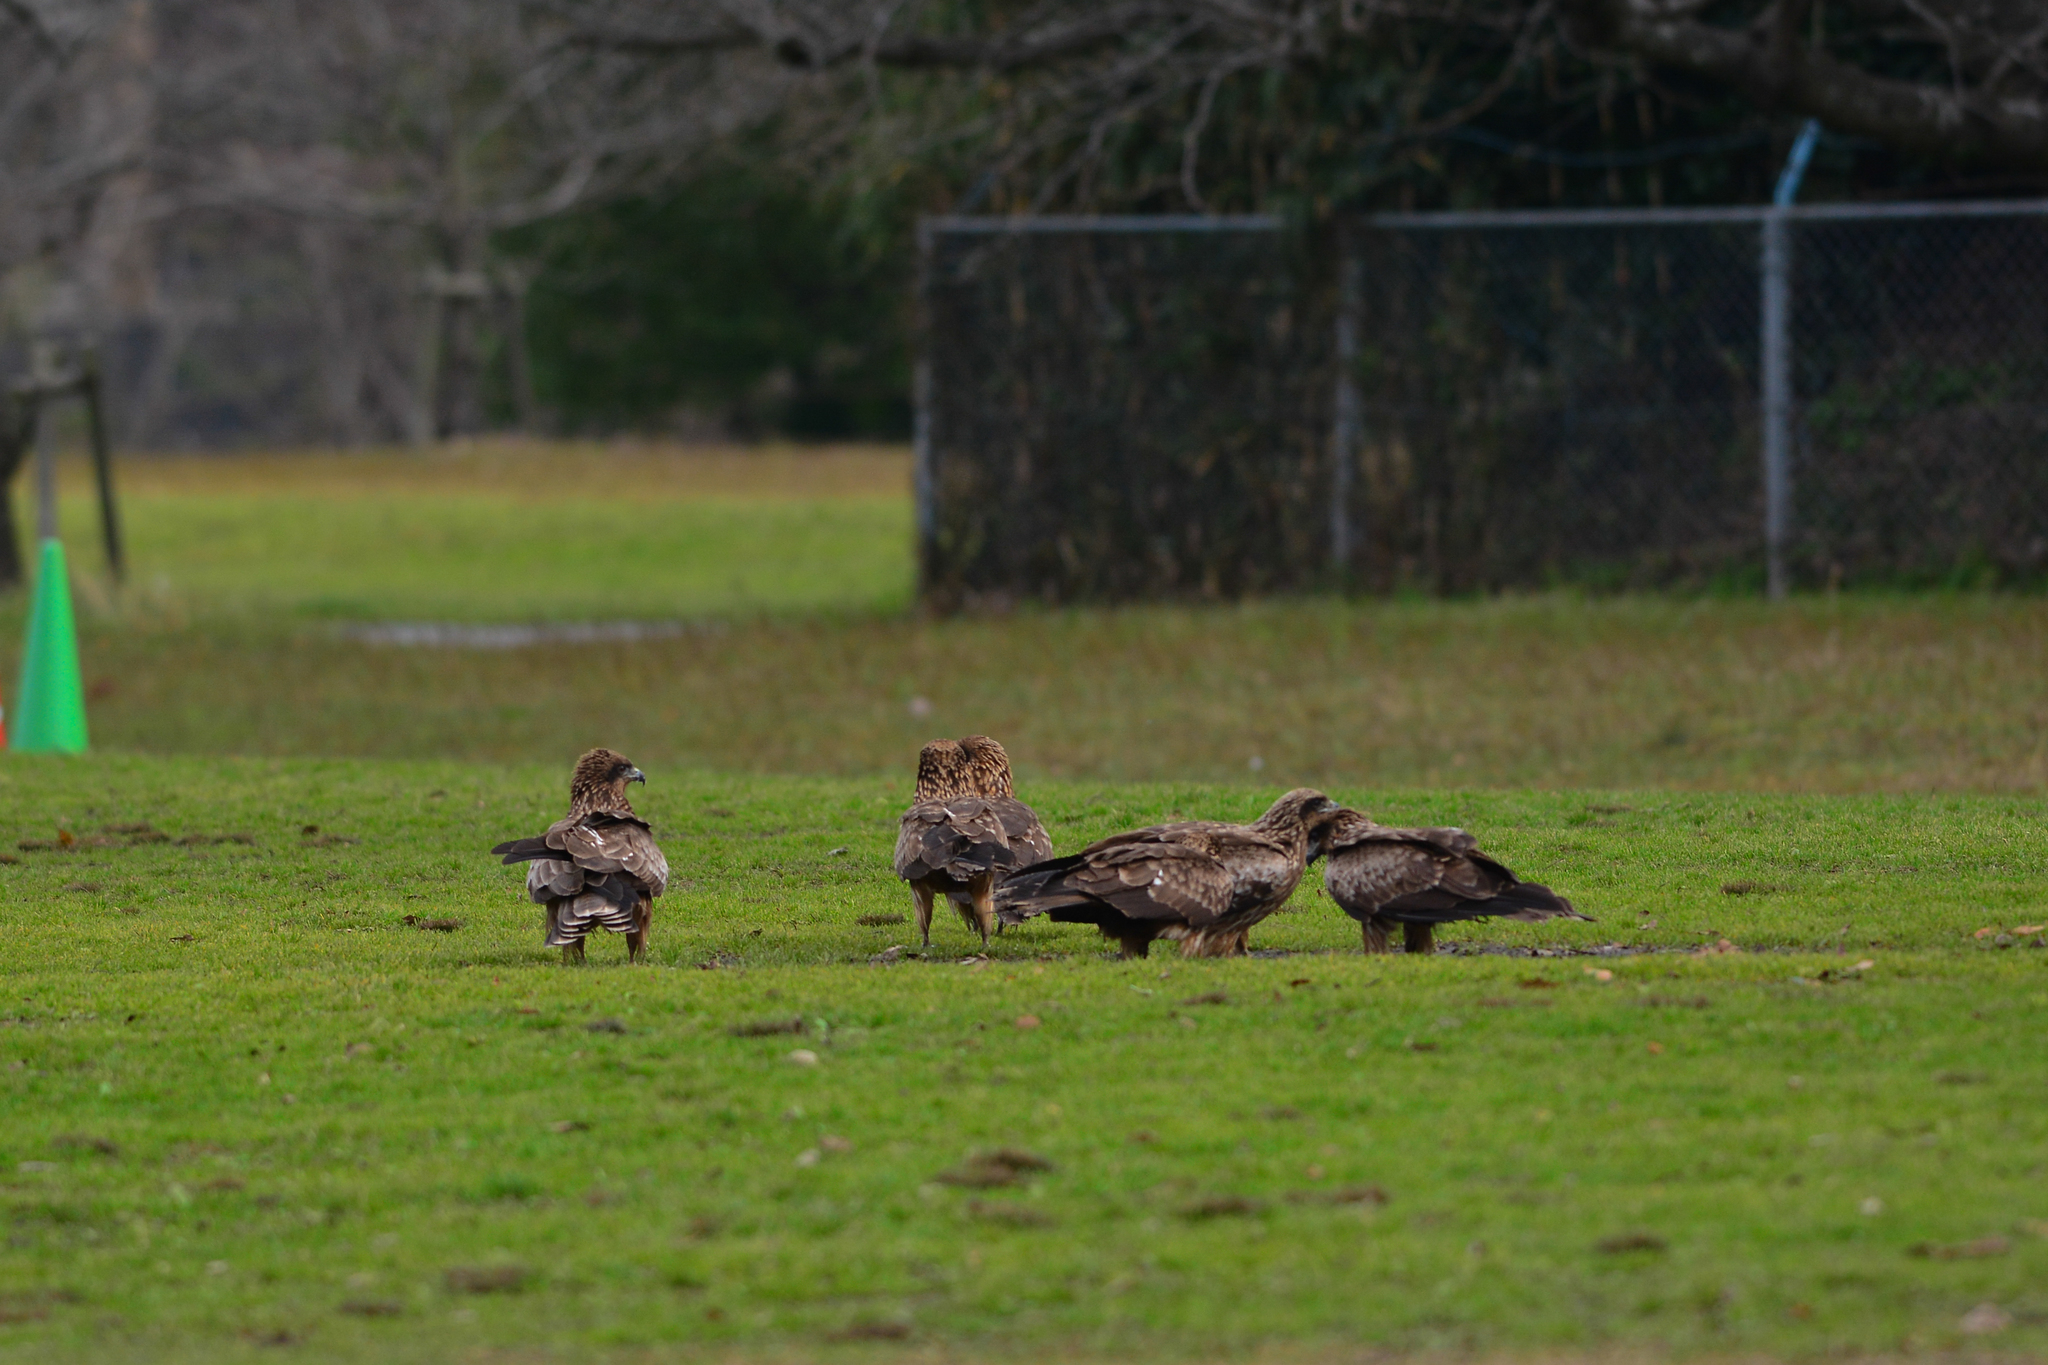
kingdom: Animalia
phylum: Chordata
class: Aves
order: Accipitriformes
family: Accipitridae
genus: Milvus
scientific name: Milvus migrans
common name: Black kite
